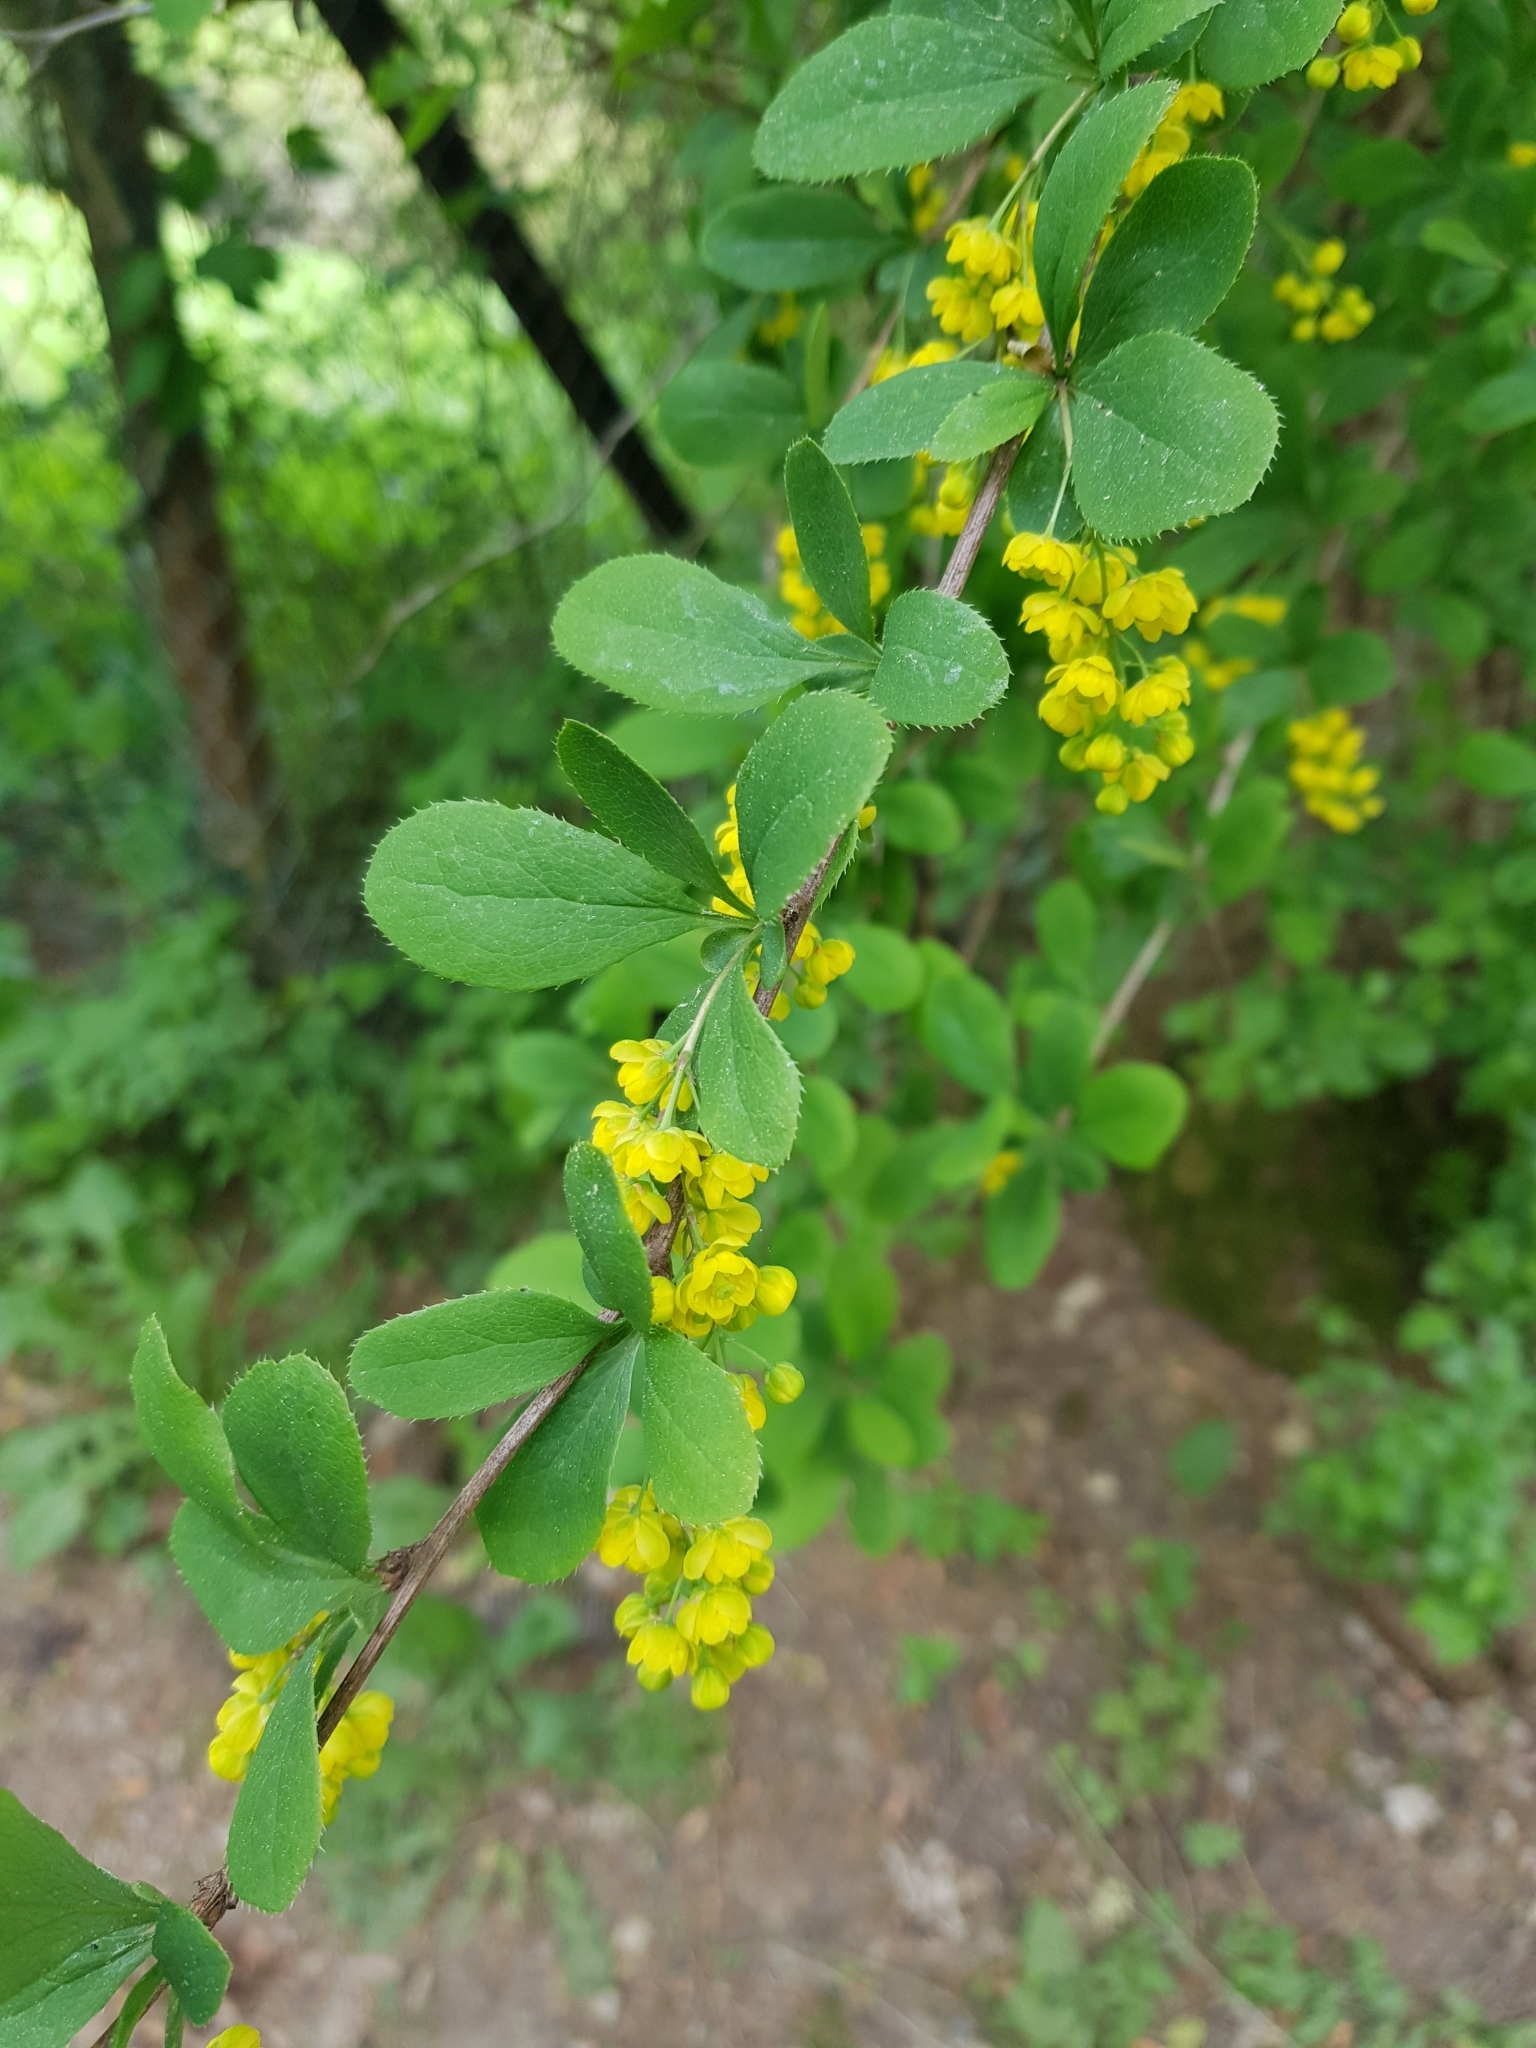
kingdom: Plantae
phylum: Tracheophyta
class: Magnoliopsida
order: Ranunculales
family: Berberidaceae
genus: Berberis
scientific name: Berberis vulgaris
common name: Barberry
